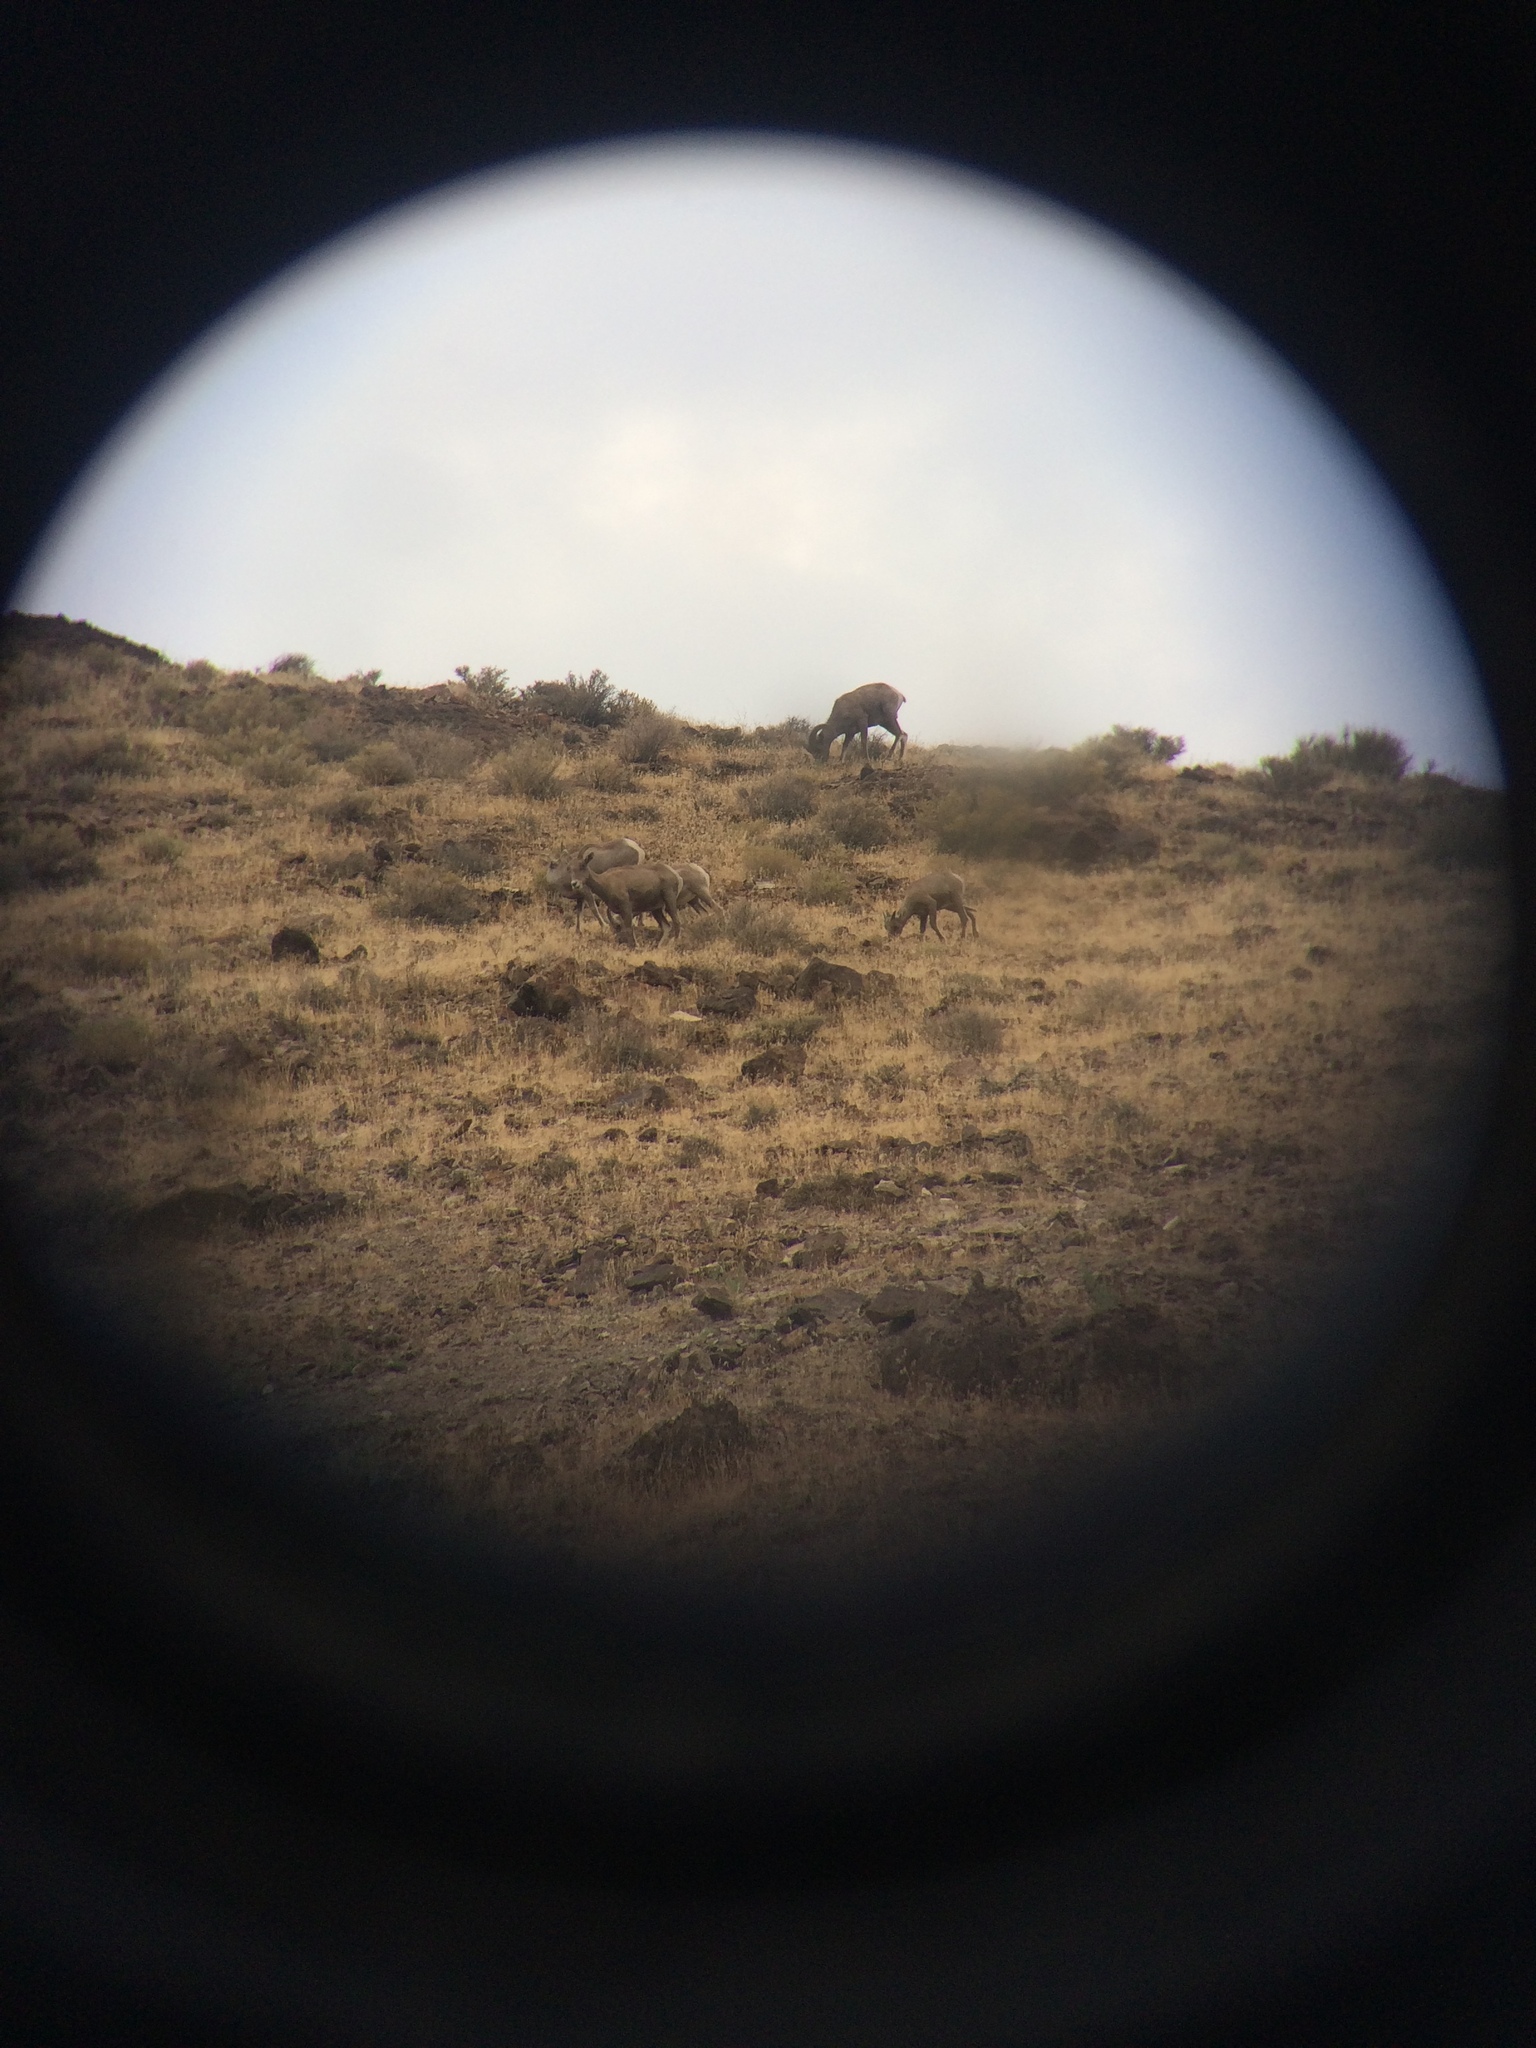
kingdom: Animalia
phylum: Chordata
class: Mammalia
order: Artiodactyla
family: Bovidae
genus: Ovis
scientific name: Ovis canadensis
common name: Bighorn sheep
